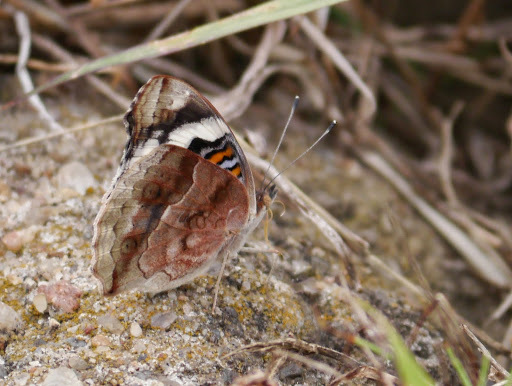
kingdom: Animalia
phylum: Arthropoda
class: Insecta
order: Lepidoptera
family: Nymphalidae
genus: Junonia
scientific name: Junonia oenone
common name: Dark blue pansy
